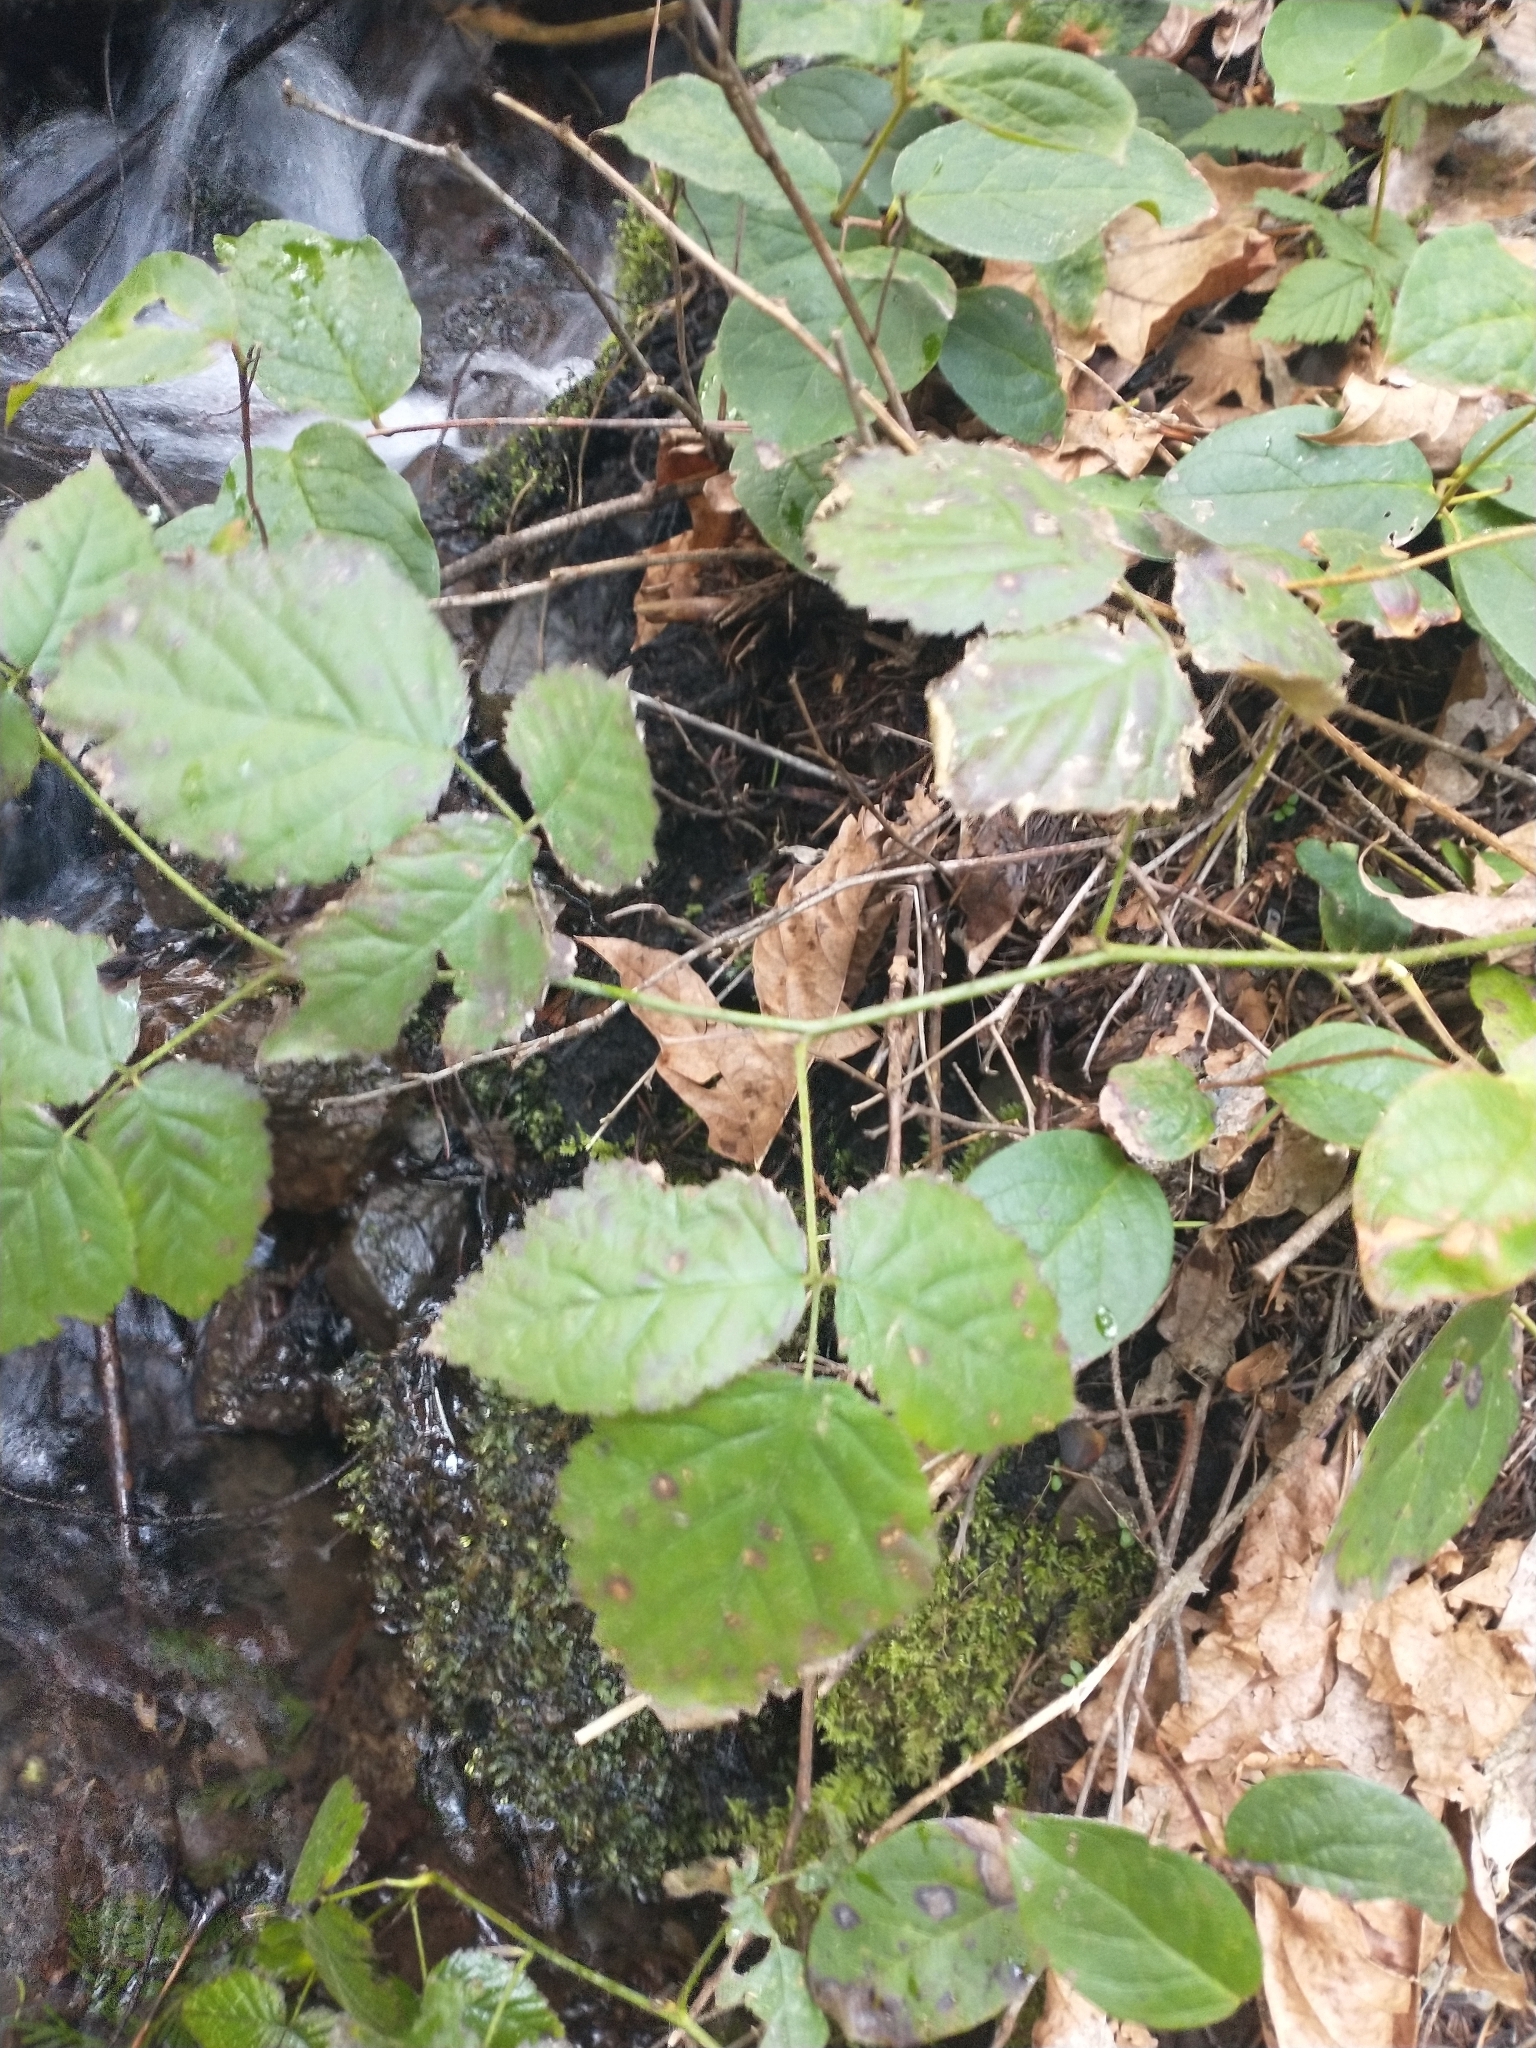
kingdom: Plantae
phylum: Tracheophyta
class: Magnoliopsida
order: Rosales
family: Rosaceae
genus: Rubus
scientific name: Rubus ursinus
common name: Pacific blackberry
